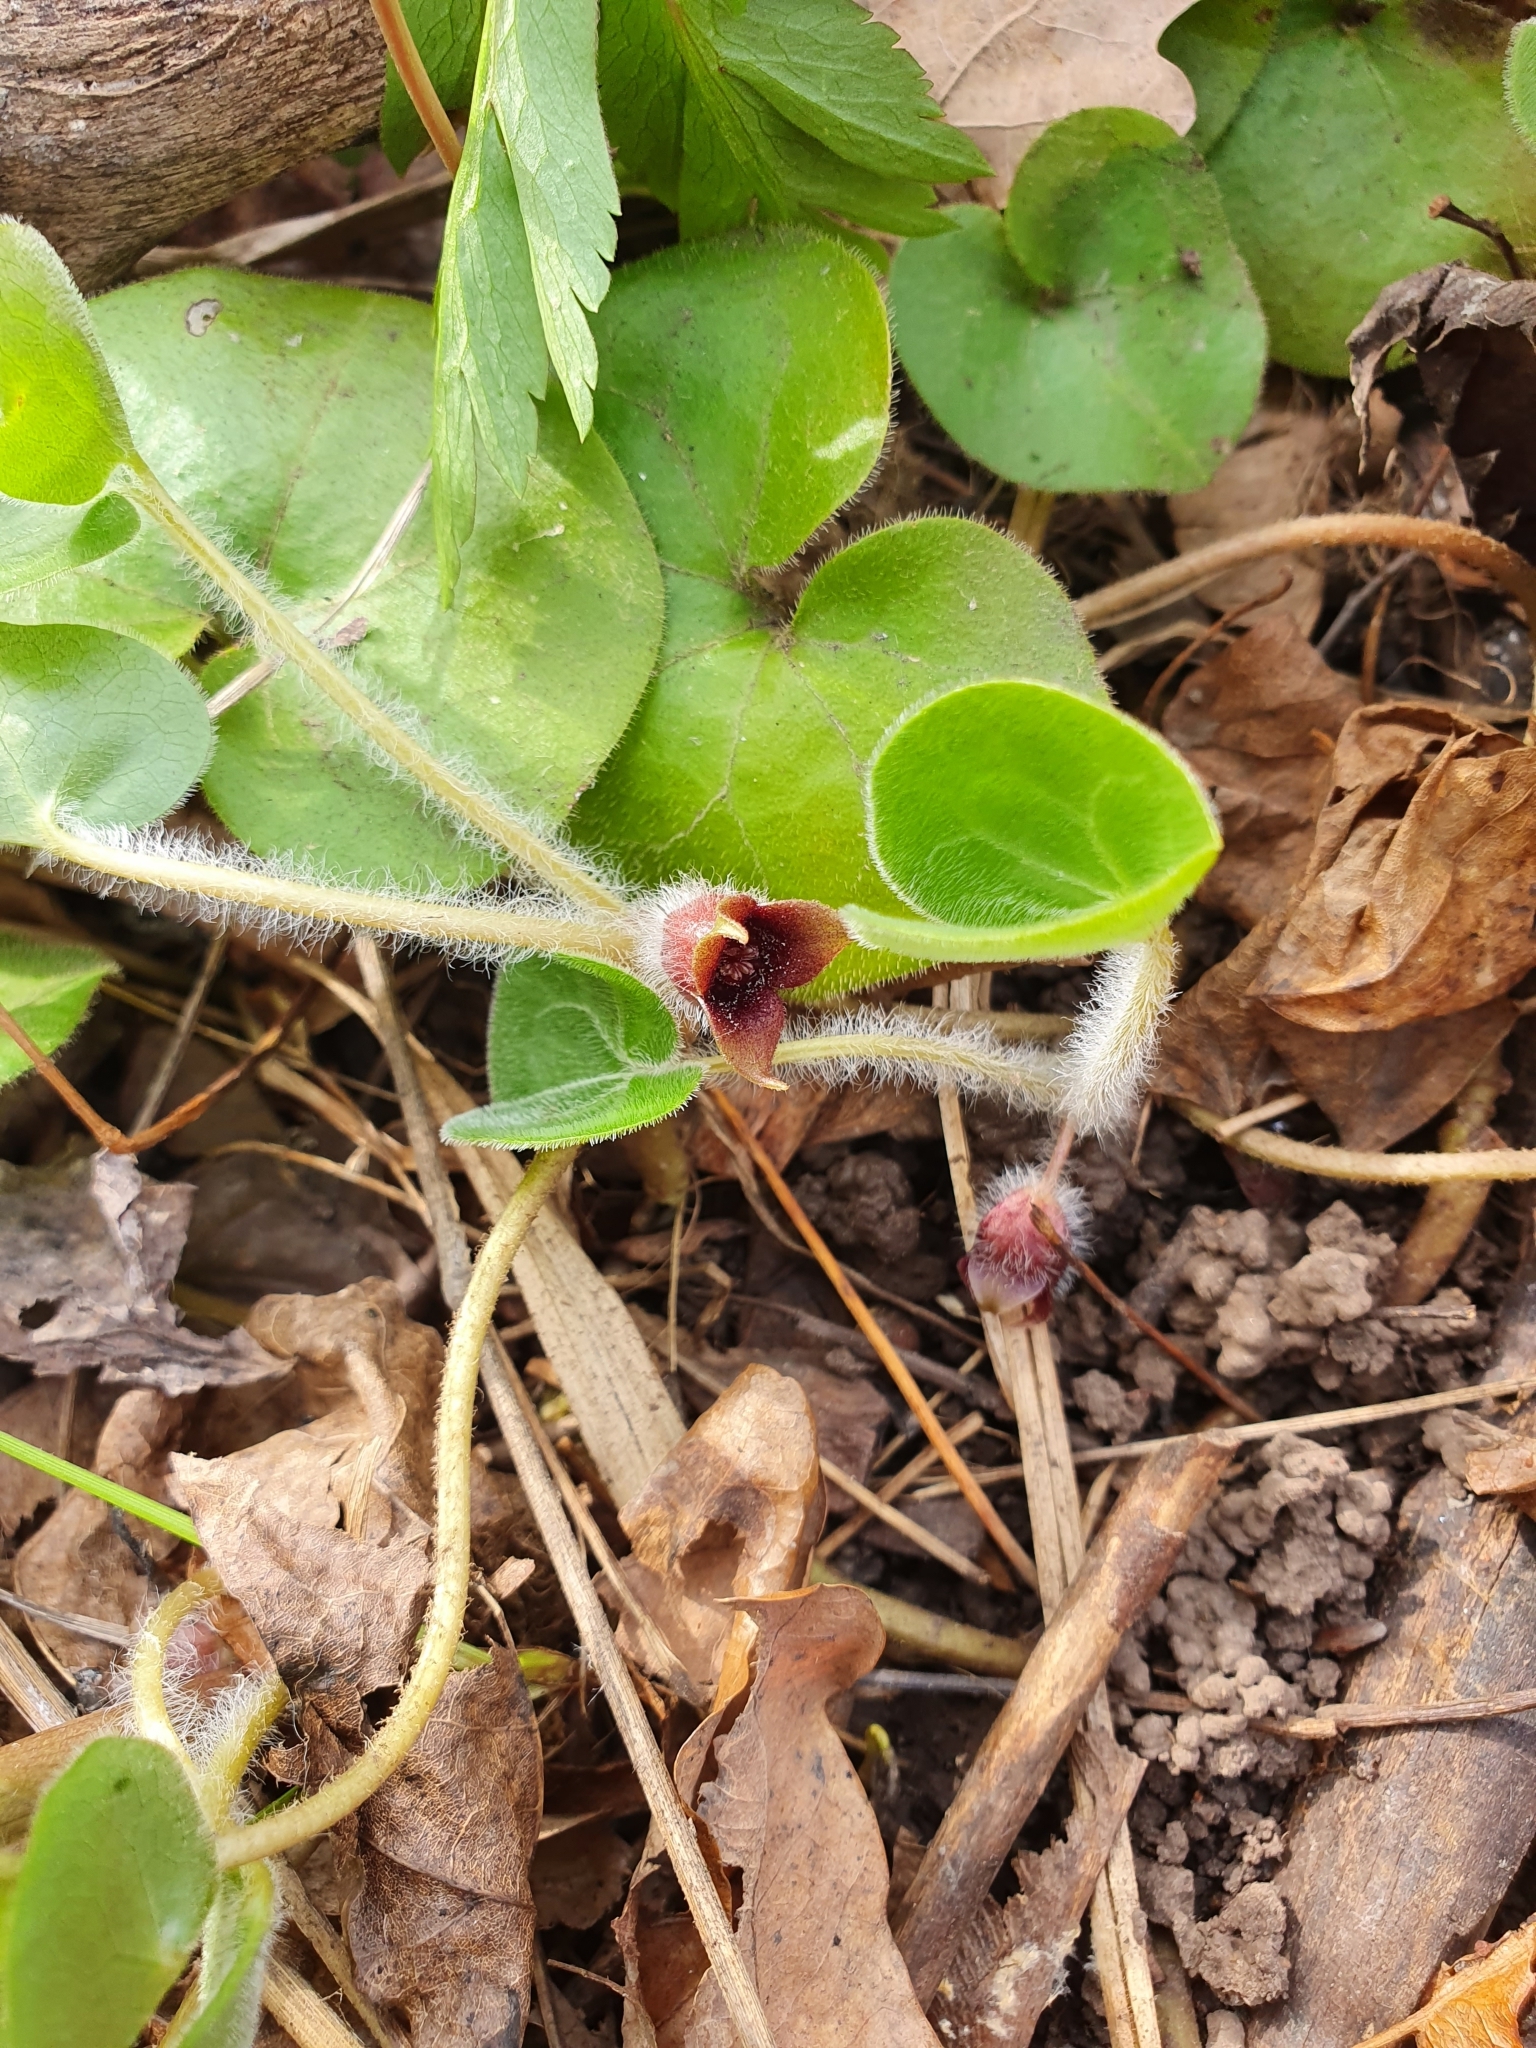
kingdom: Plantae
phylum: Tracheophyta
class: Magnoliopsida
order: Piperales
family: Aristolochiaceae
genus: Asarum
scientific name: Asarum europaeum
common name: Asarabacca
